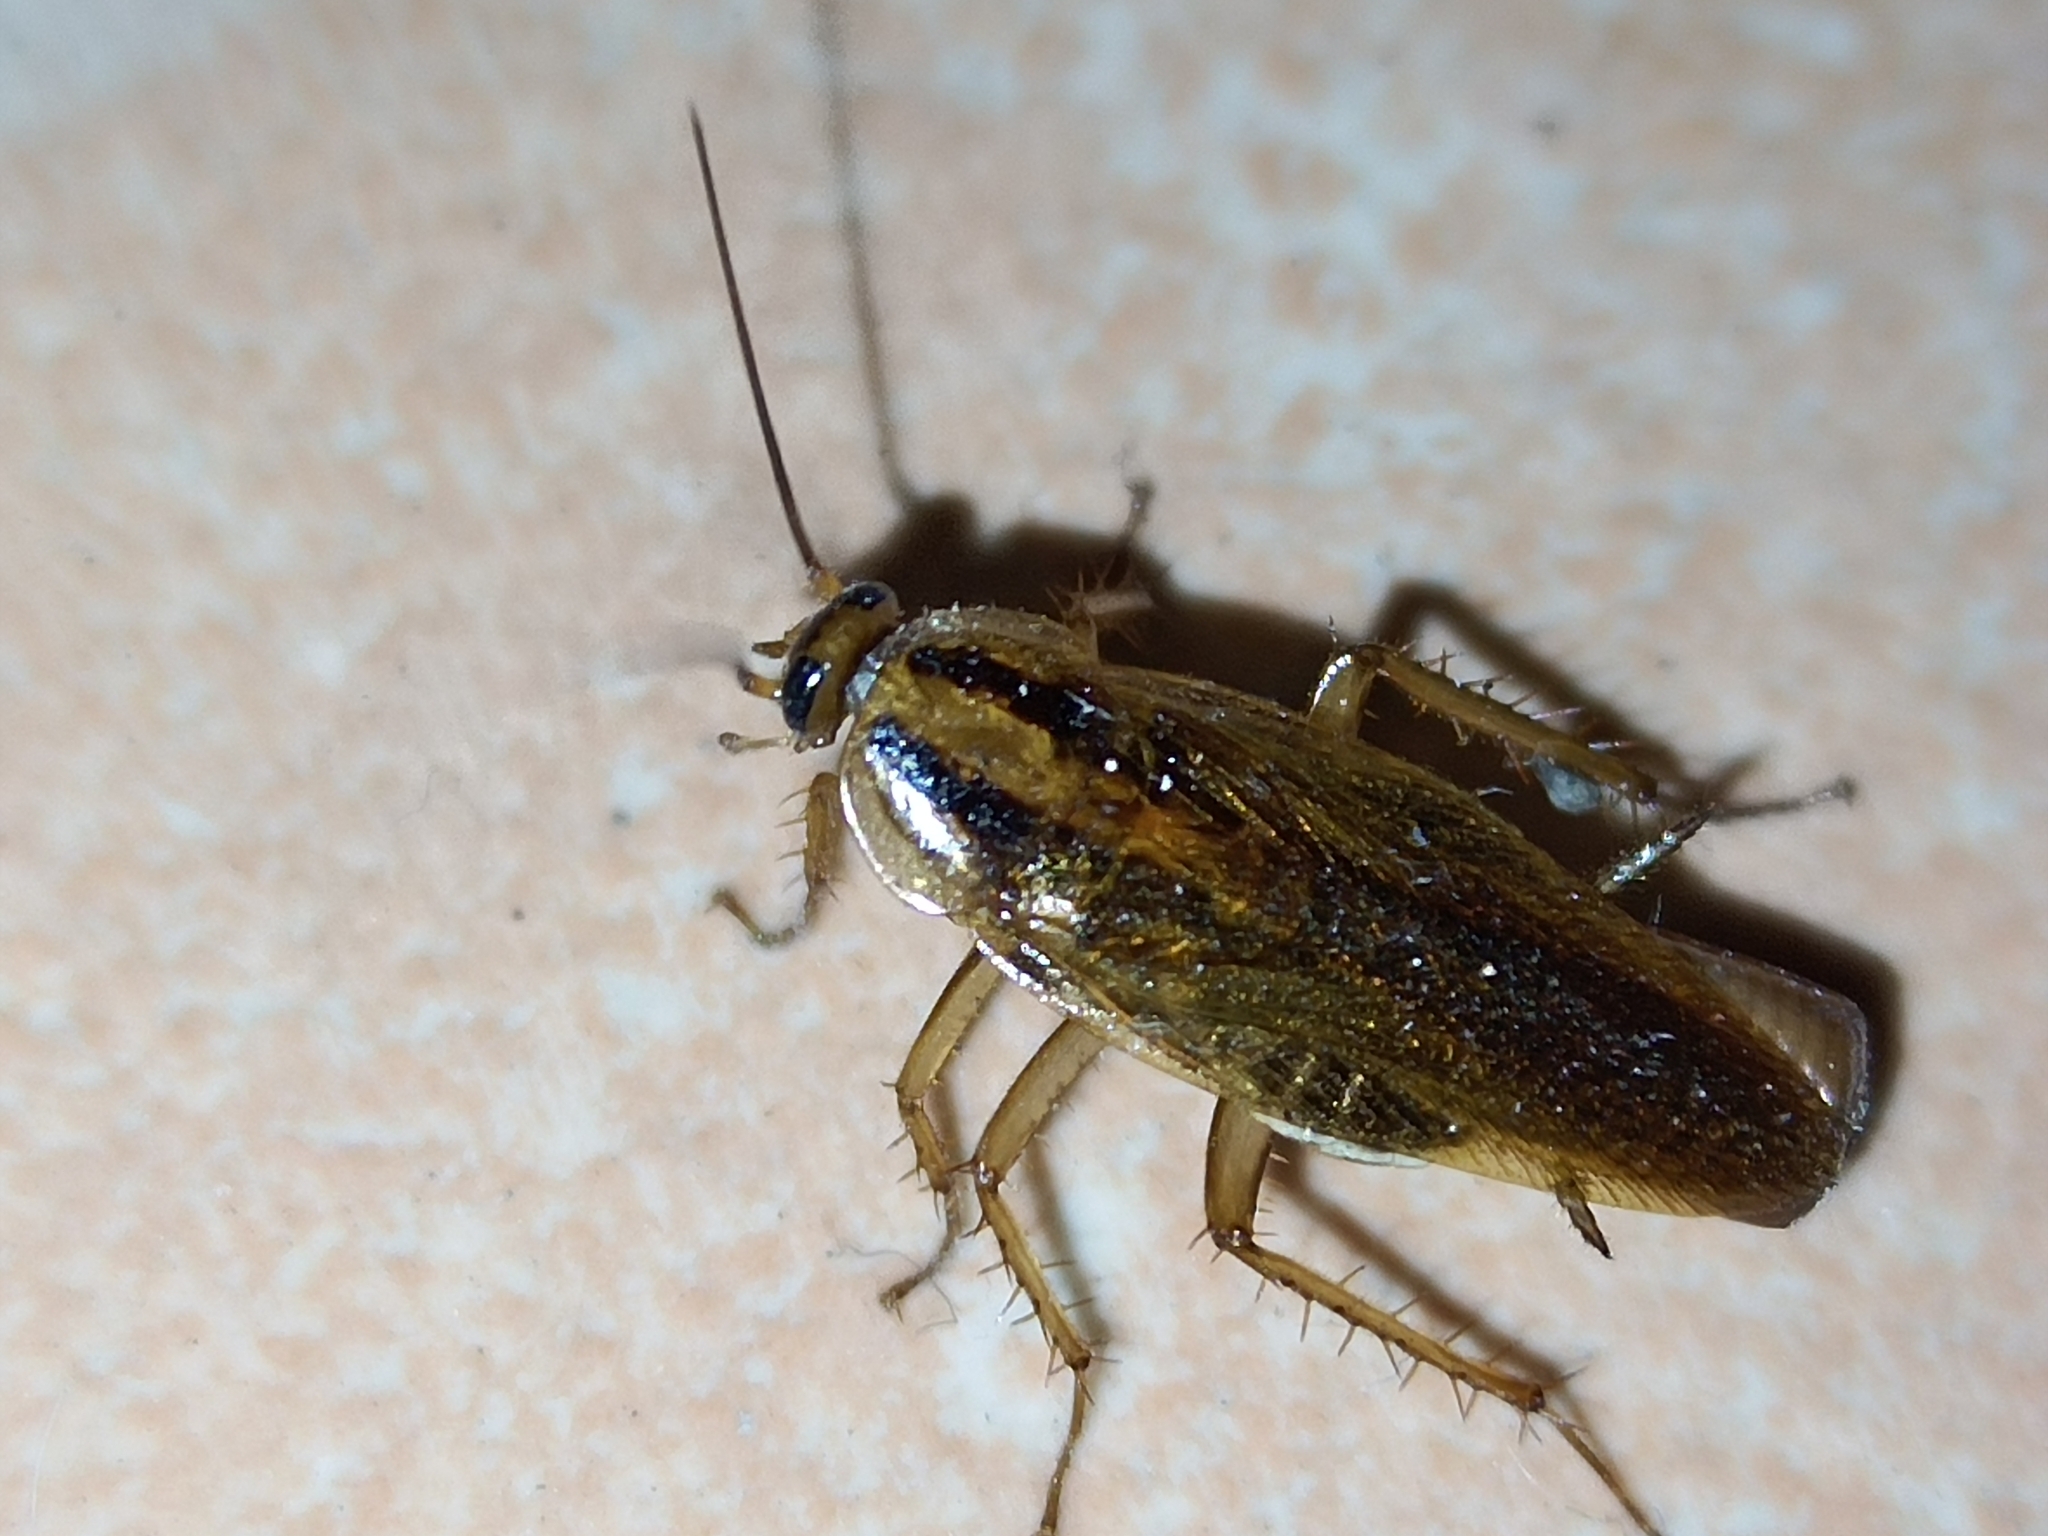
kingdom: Animalia
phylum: Arthropoda
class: Insecta
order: Blattodea
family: Ectobiidae
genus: Blattella
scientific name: Blattella germanica
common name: German cockroach
